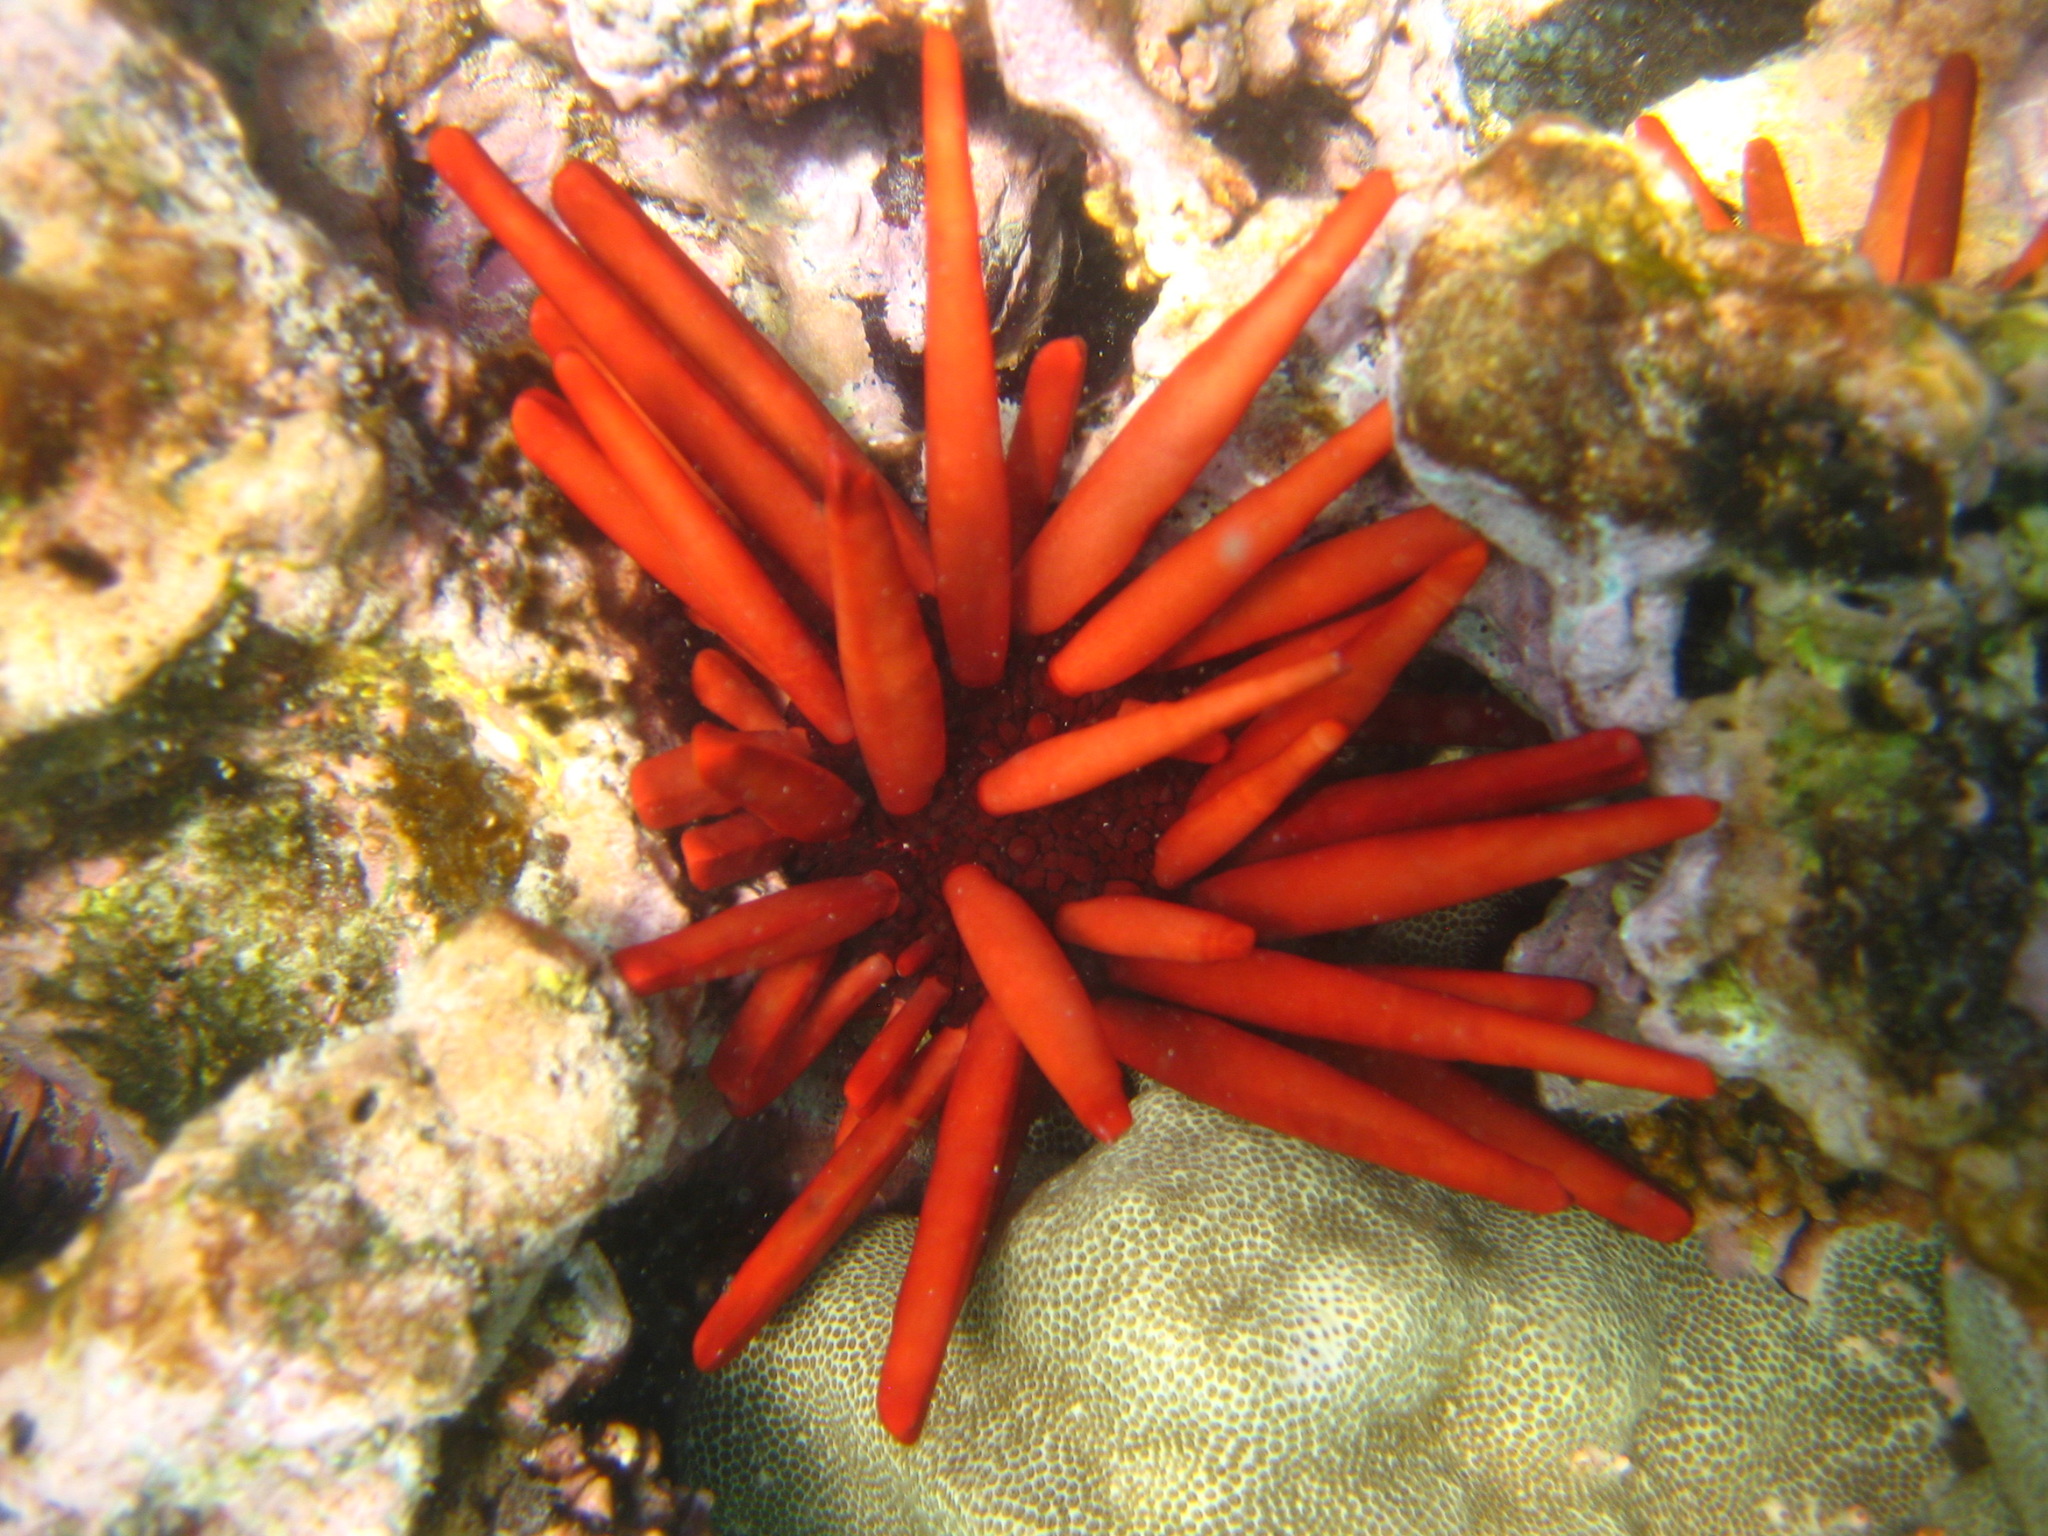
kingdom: Animalia
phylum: Echinodermata
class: Echinoidea
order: Camarodonta
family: Echinometridae
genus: Heterocentrotus
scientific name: Heterocentrotus mamillatus
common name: Slate pencil urchin
